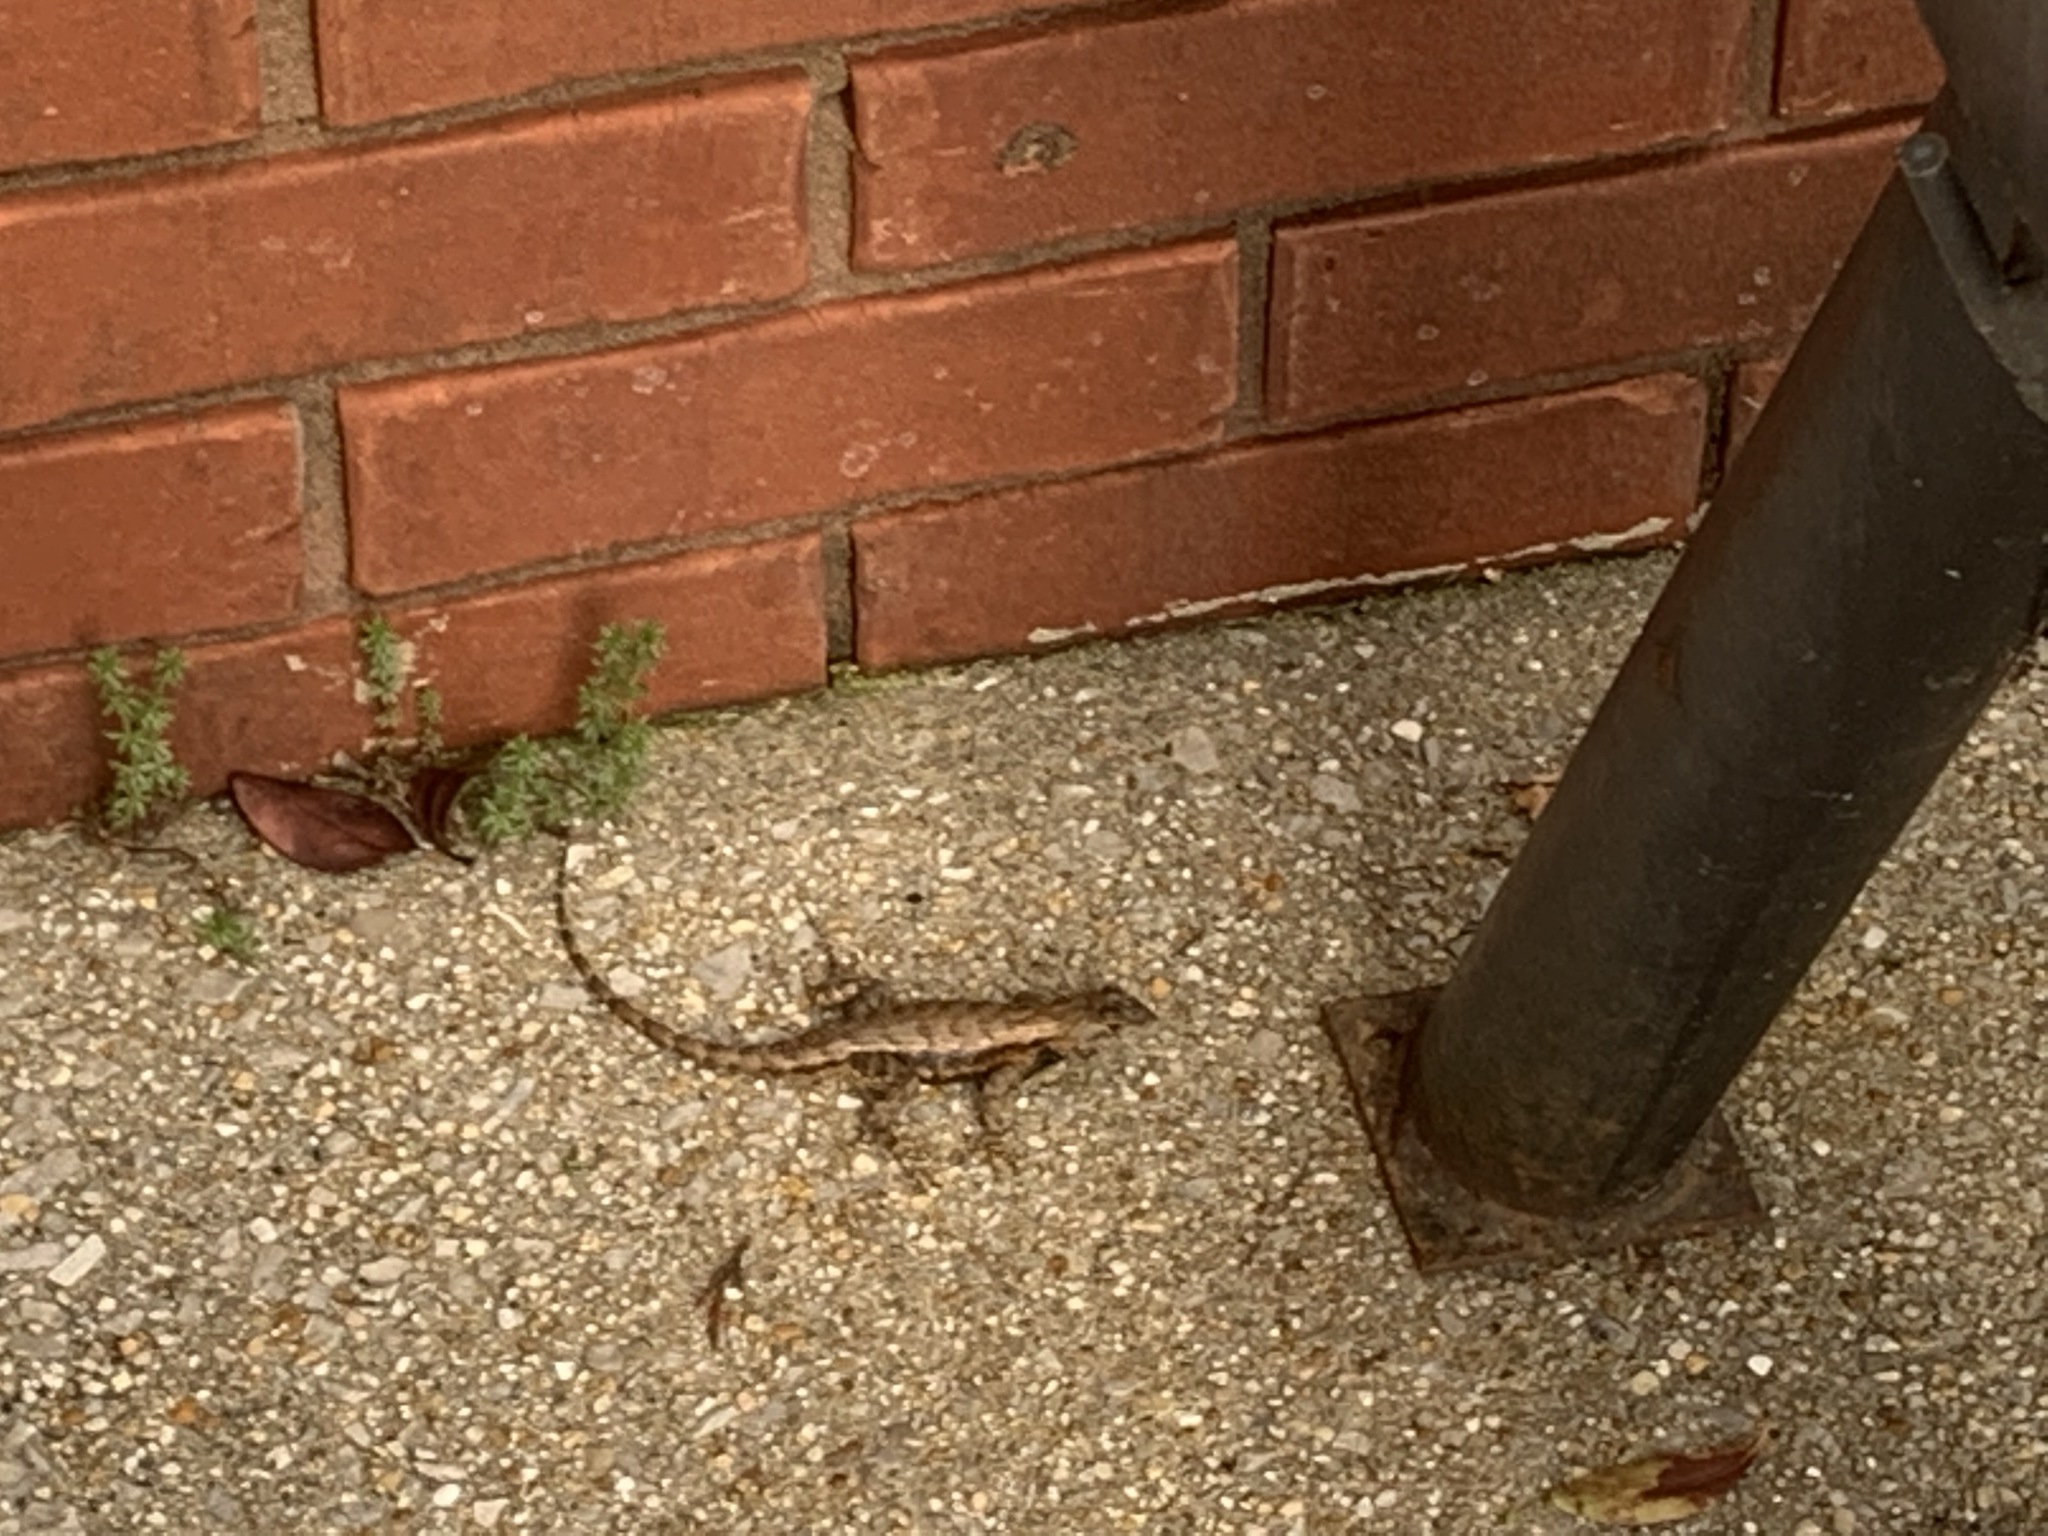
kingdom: Animalia
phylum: Chordata
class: Squamata
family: Phrynosomatidae
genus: Sceloporus
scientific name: Sceloporus undulatus
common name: Eastern fence lizard
